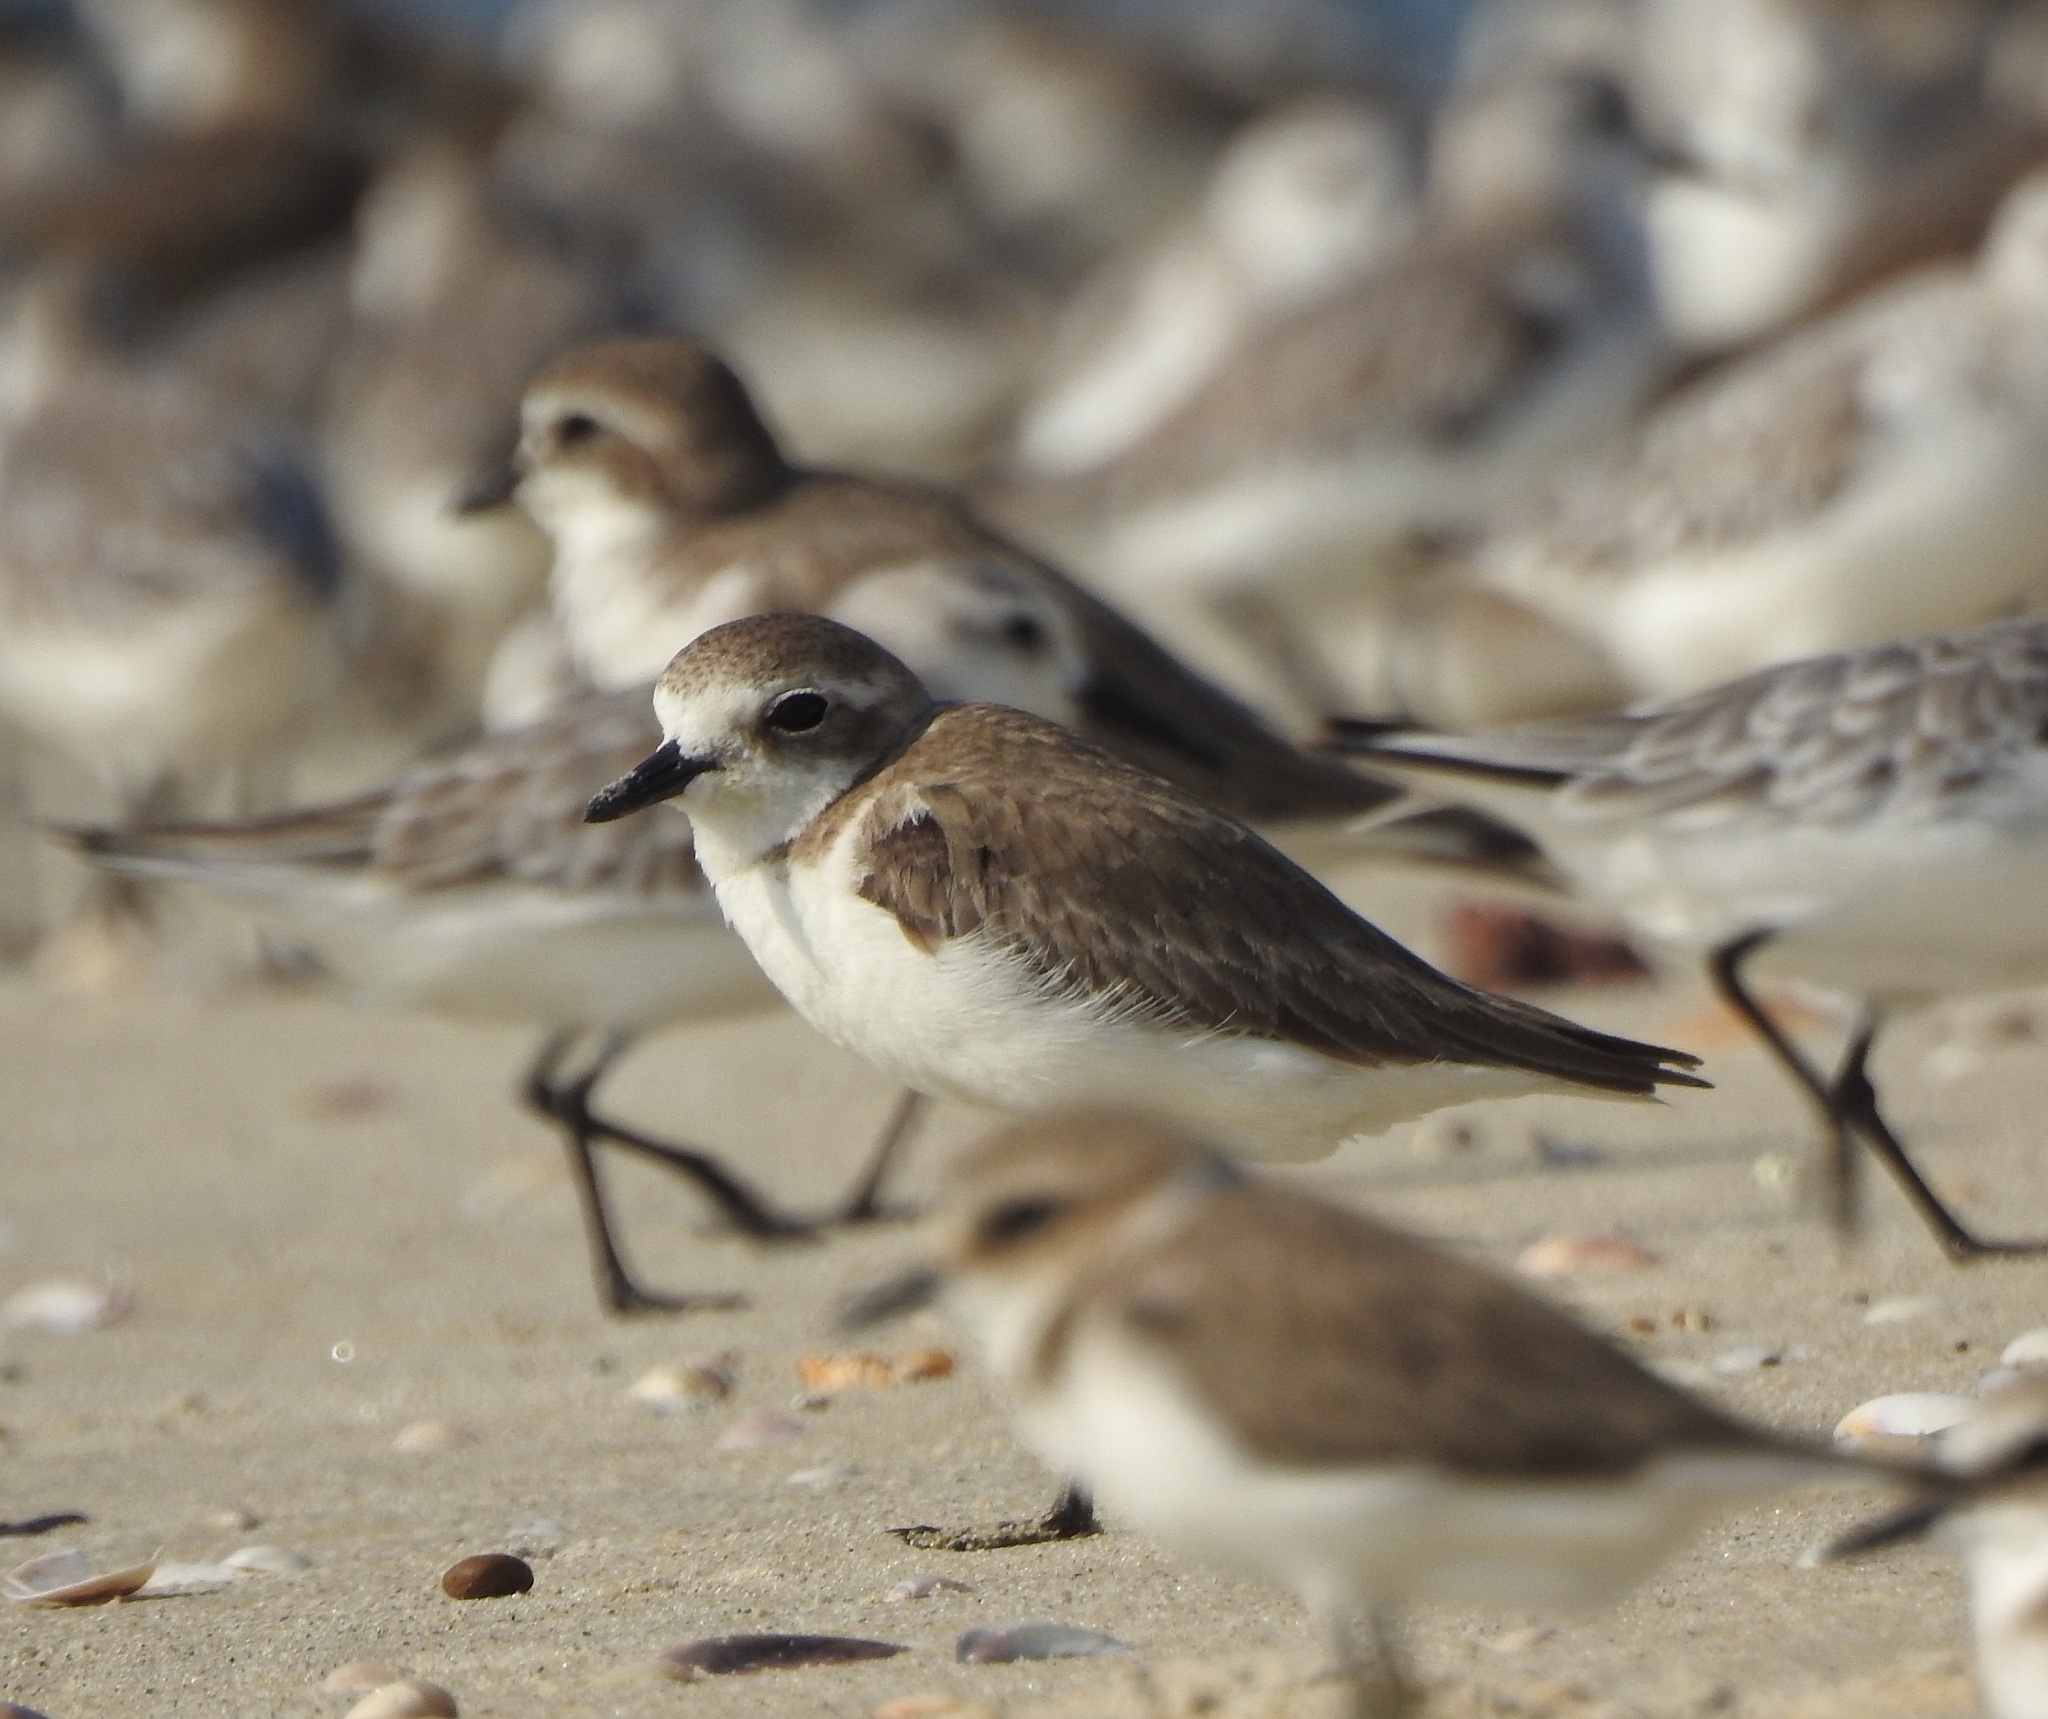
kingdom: Animalia
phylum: Chordata
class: Aves
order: Charadriiformes
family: Charadriidae
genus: Anarhynchus
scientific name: Anarhynchus
